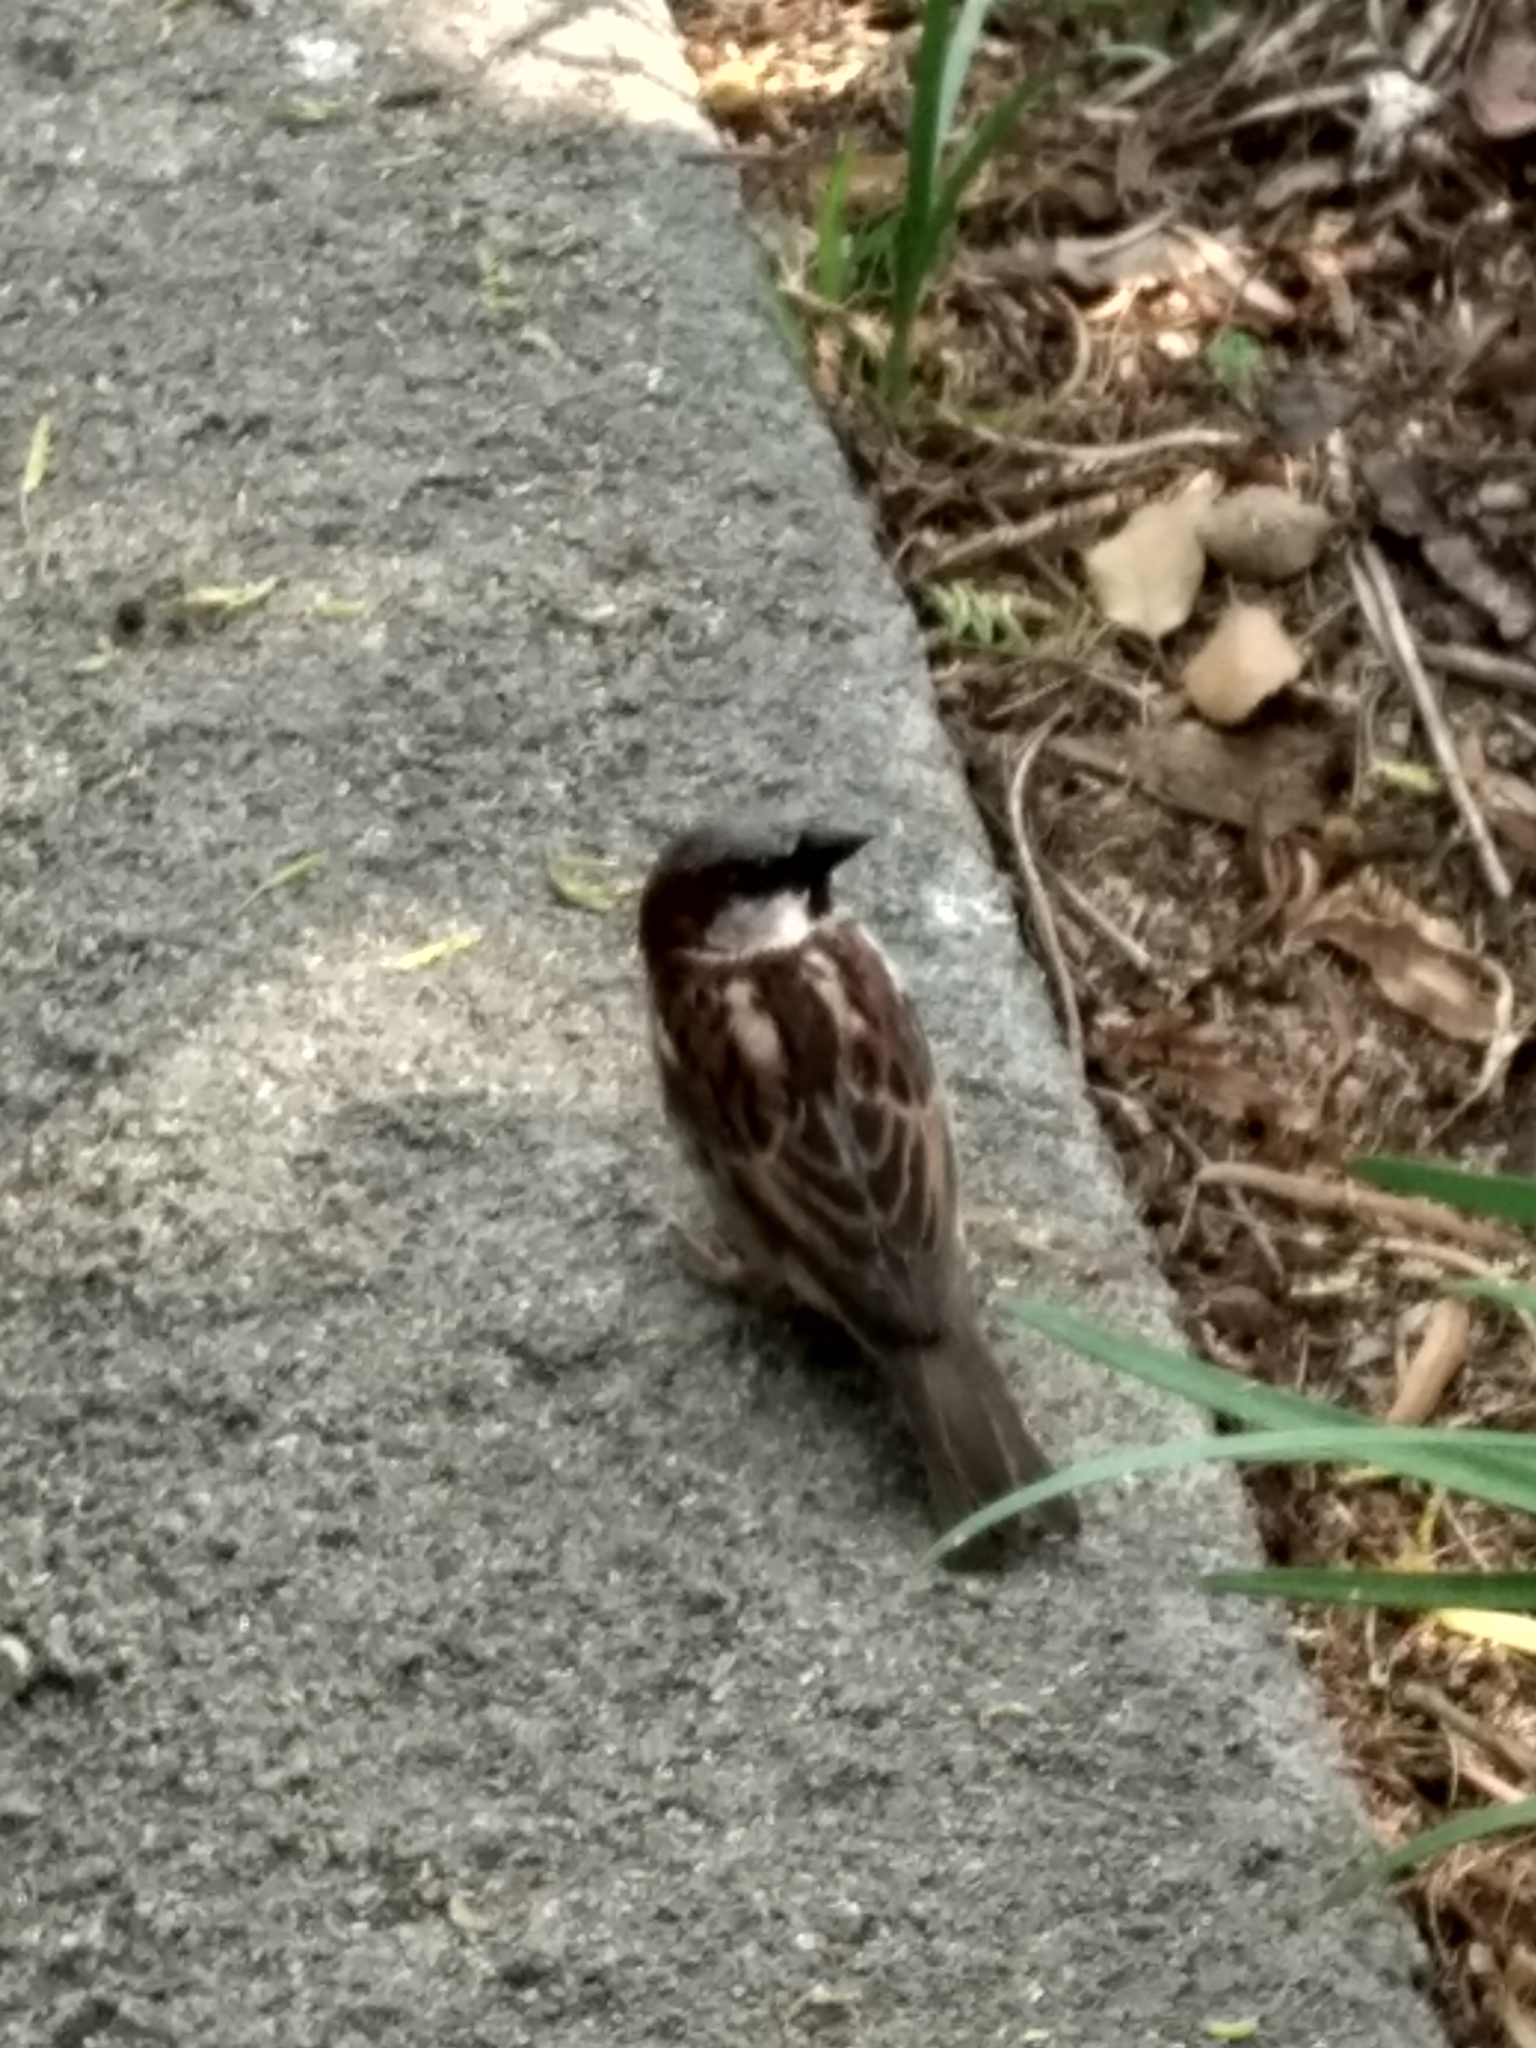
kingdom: Animalia
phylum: Chordata
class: Aves
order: Passeriformes
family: Passeridae
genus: Passer
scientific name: Passer domesticus
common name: House sparrow
